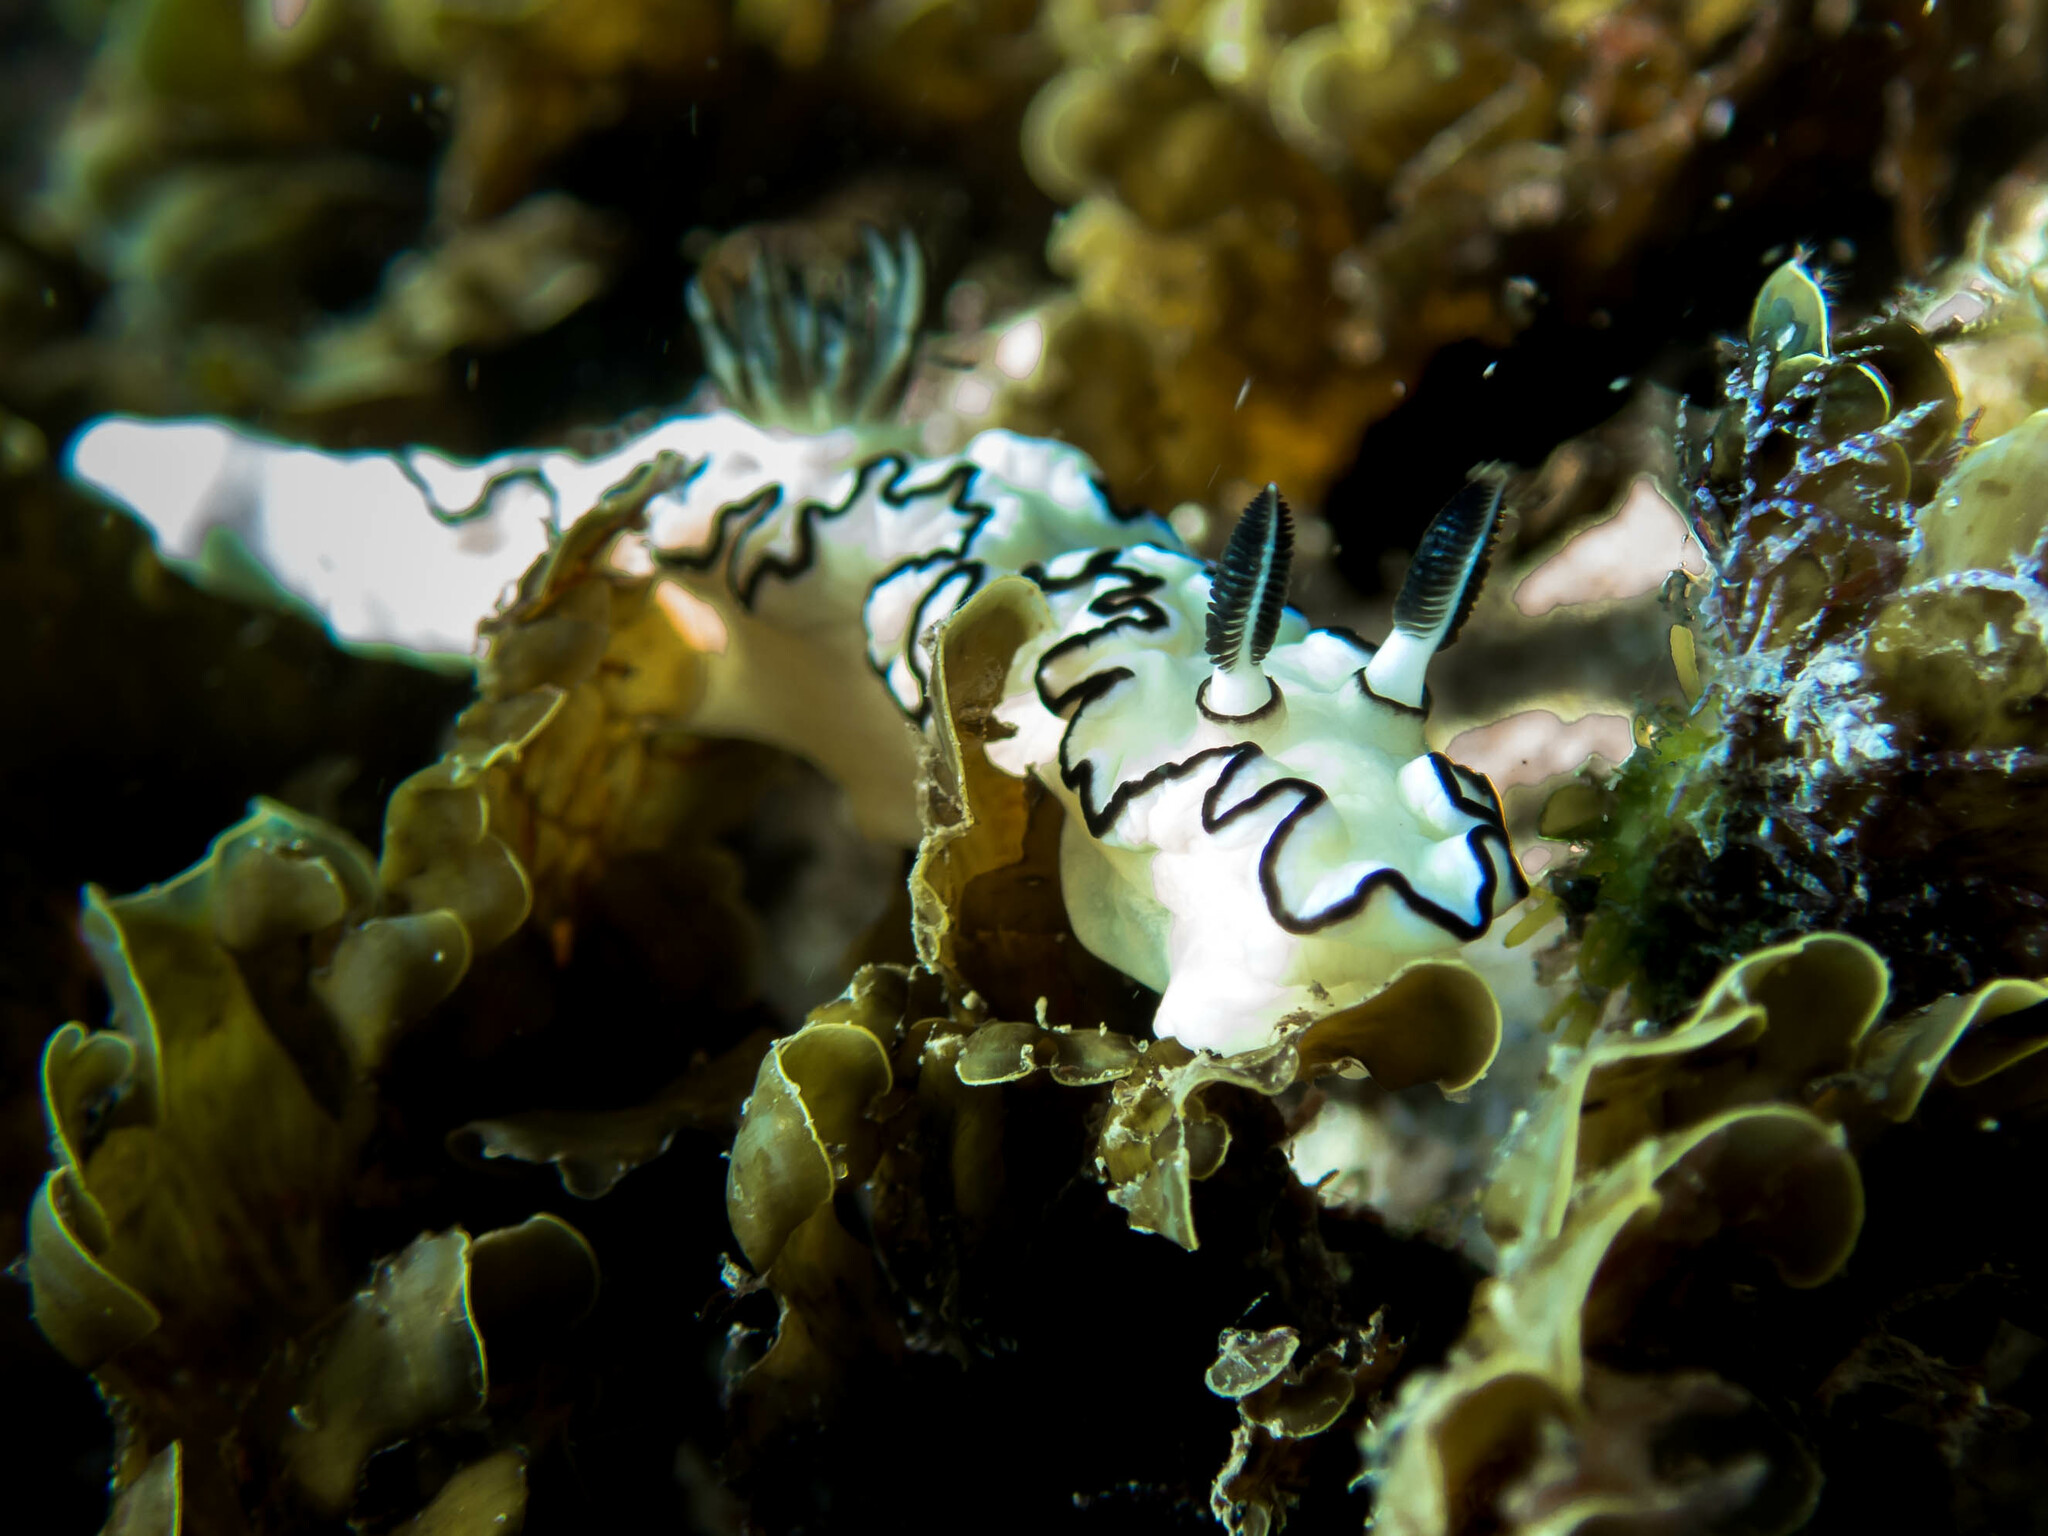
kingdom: Animalia
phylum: Mollusca
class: Gastropoda
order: Nudibranchia
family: Chromodorididae
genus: Doriprismatica
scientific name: Doriprismatica atromarginata
